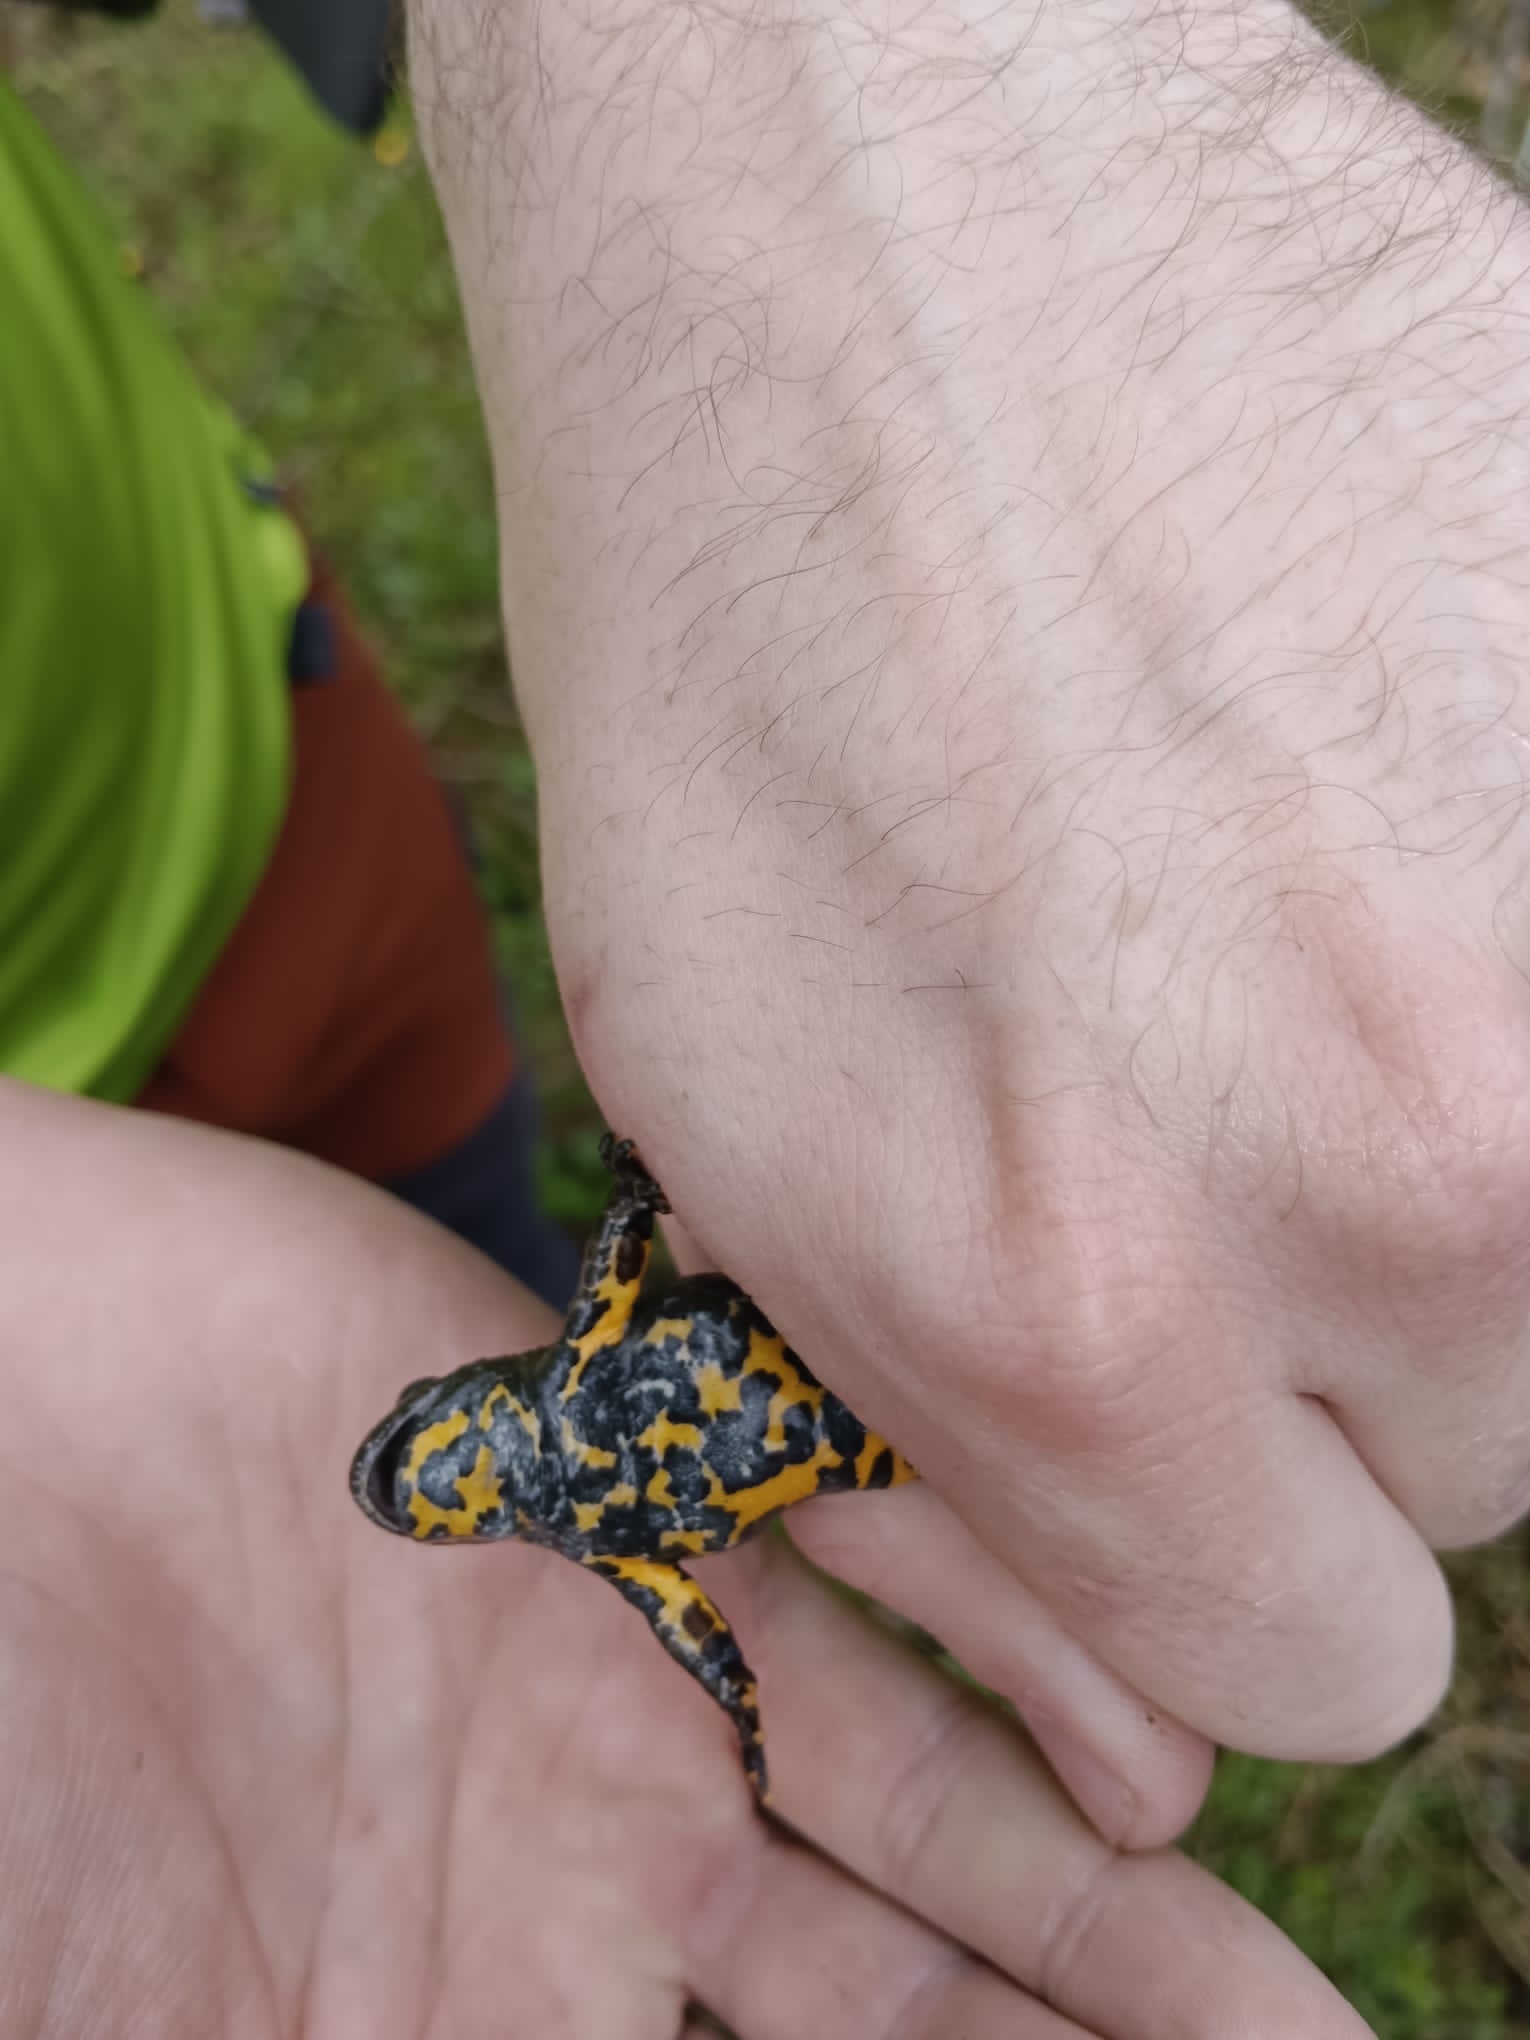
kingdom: Animalia
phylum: Chordata
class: Amphibia
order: Anura
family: Bombinatoridae
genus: Bombina
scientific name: Bombina variegata
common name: Yellow-bellied toad
